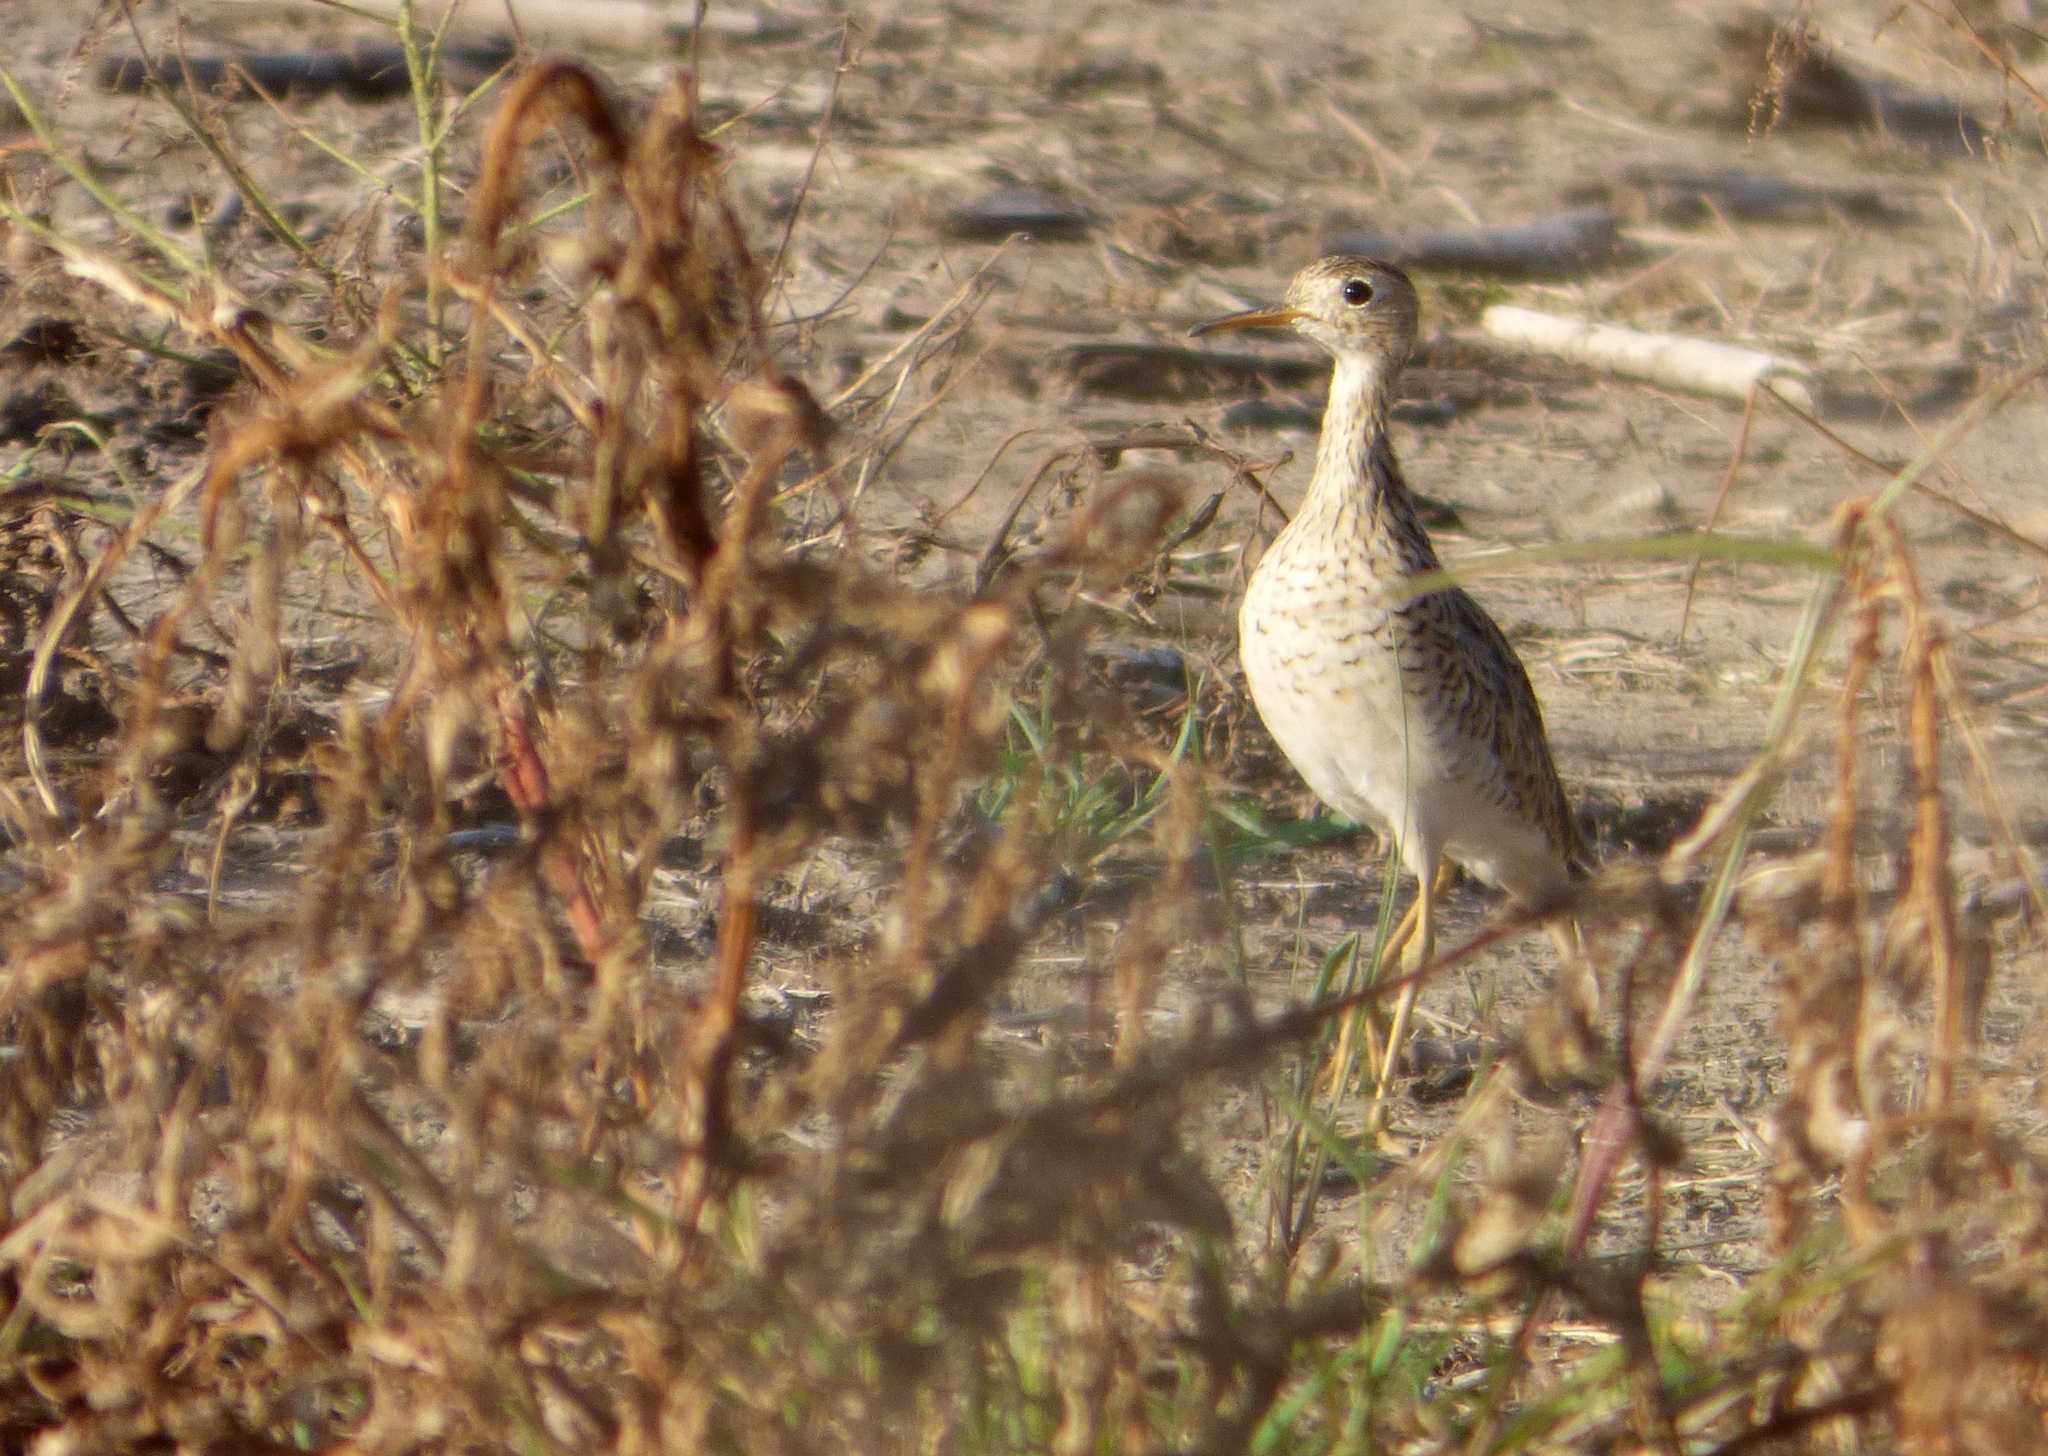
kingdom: Animalia
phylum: Chordata
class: Aves
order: Charadriiformes
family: Scolopacidae
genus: Bartramia
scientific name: Bartramia longicauda
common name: Upland sandpiper
